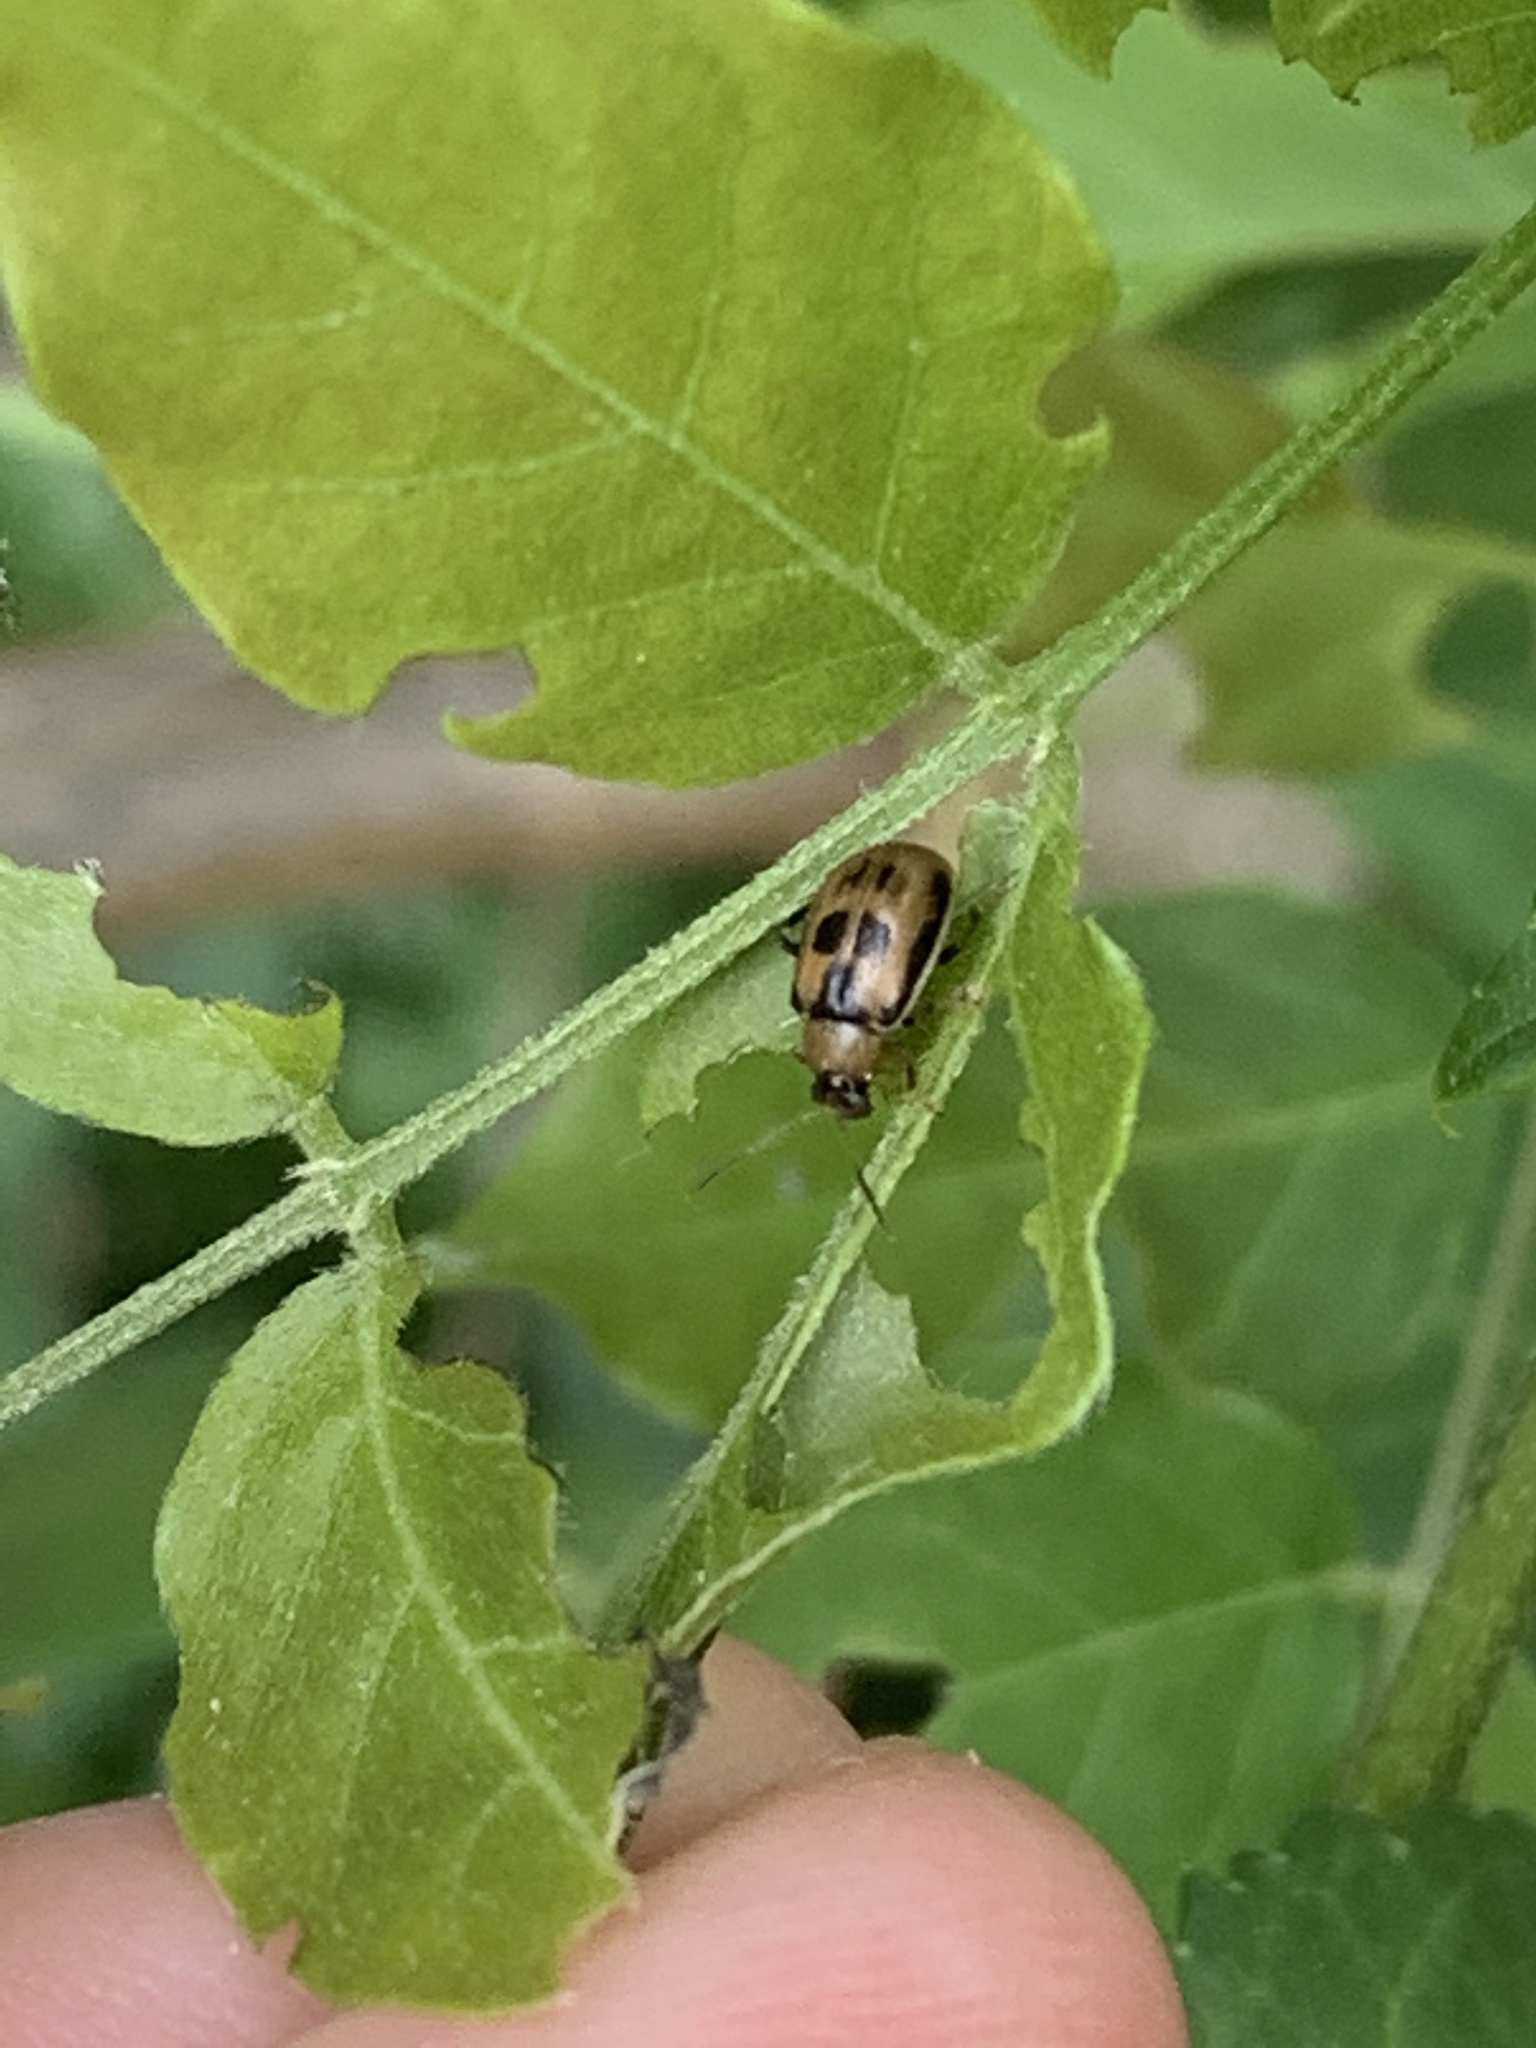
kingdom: Animalia
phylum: Arthropoda
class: Insecta
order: Coleoptera
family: Chrysomelidae
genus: Cerotoma
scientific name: Cerotoma trifurcata
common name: Bean leaf beetle
